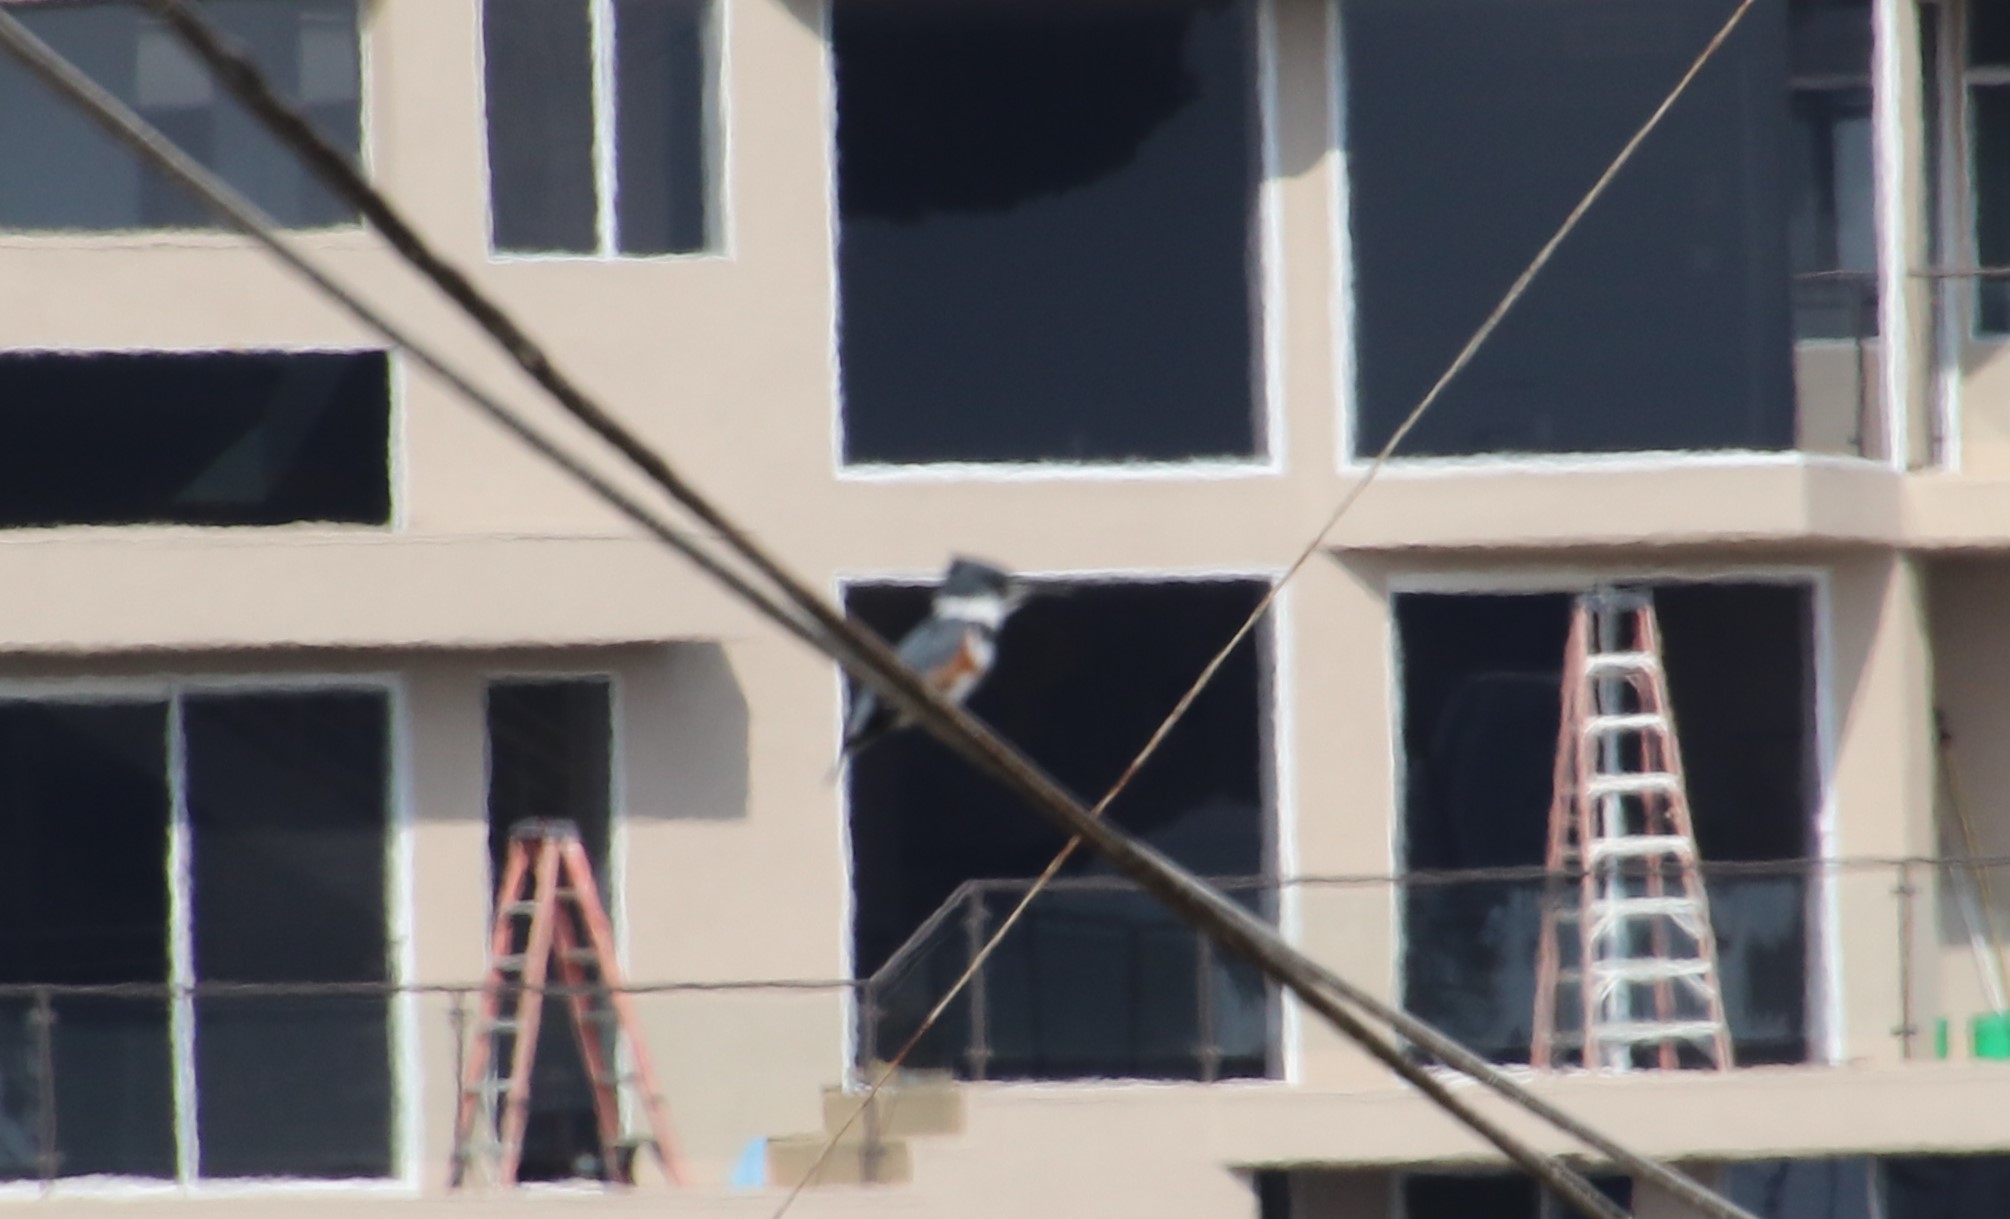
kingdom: Animalia
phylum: Chordata
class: Aves
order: Coraciiformes
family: Alcedinidae
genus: Megaceryle
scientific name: Megaceryle alcyon
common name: Belted kingfisher
